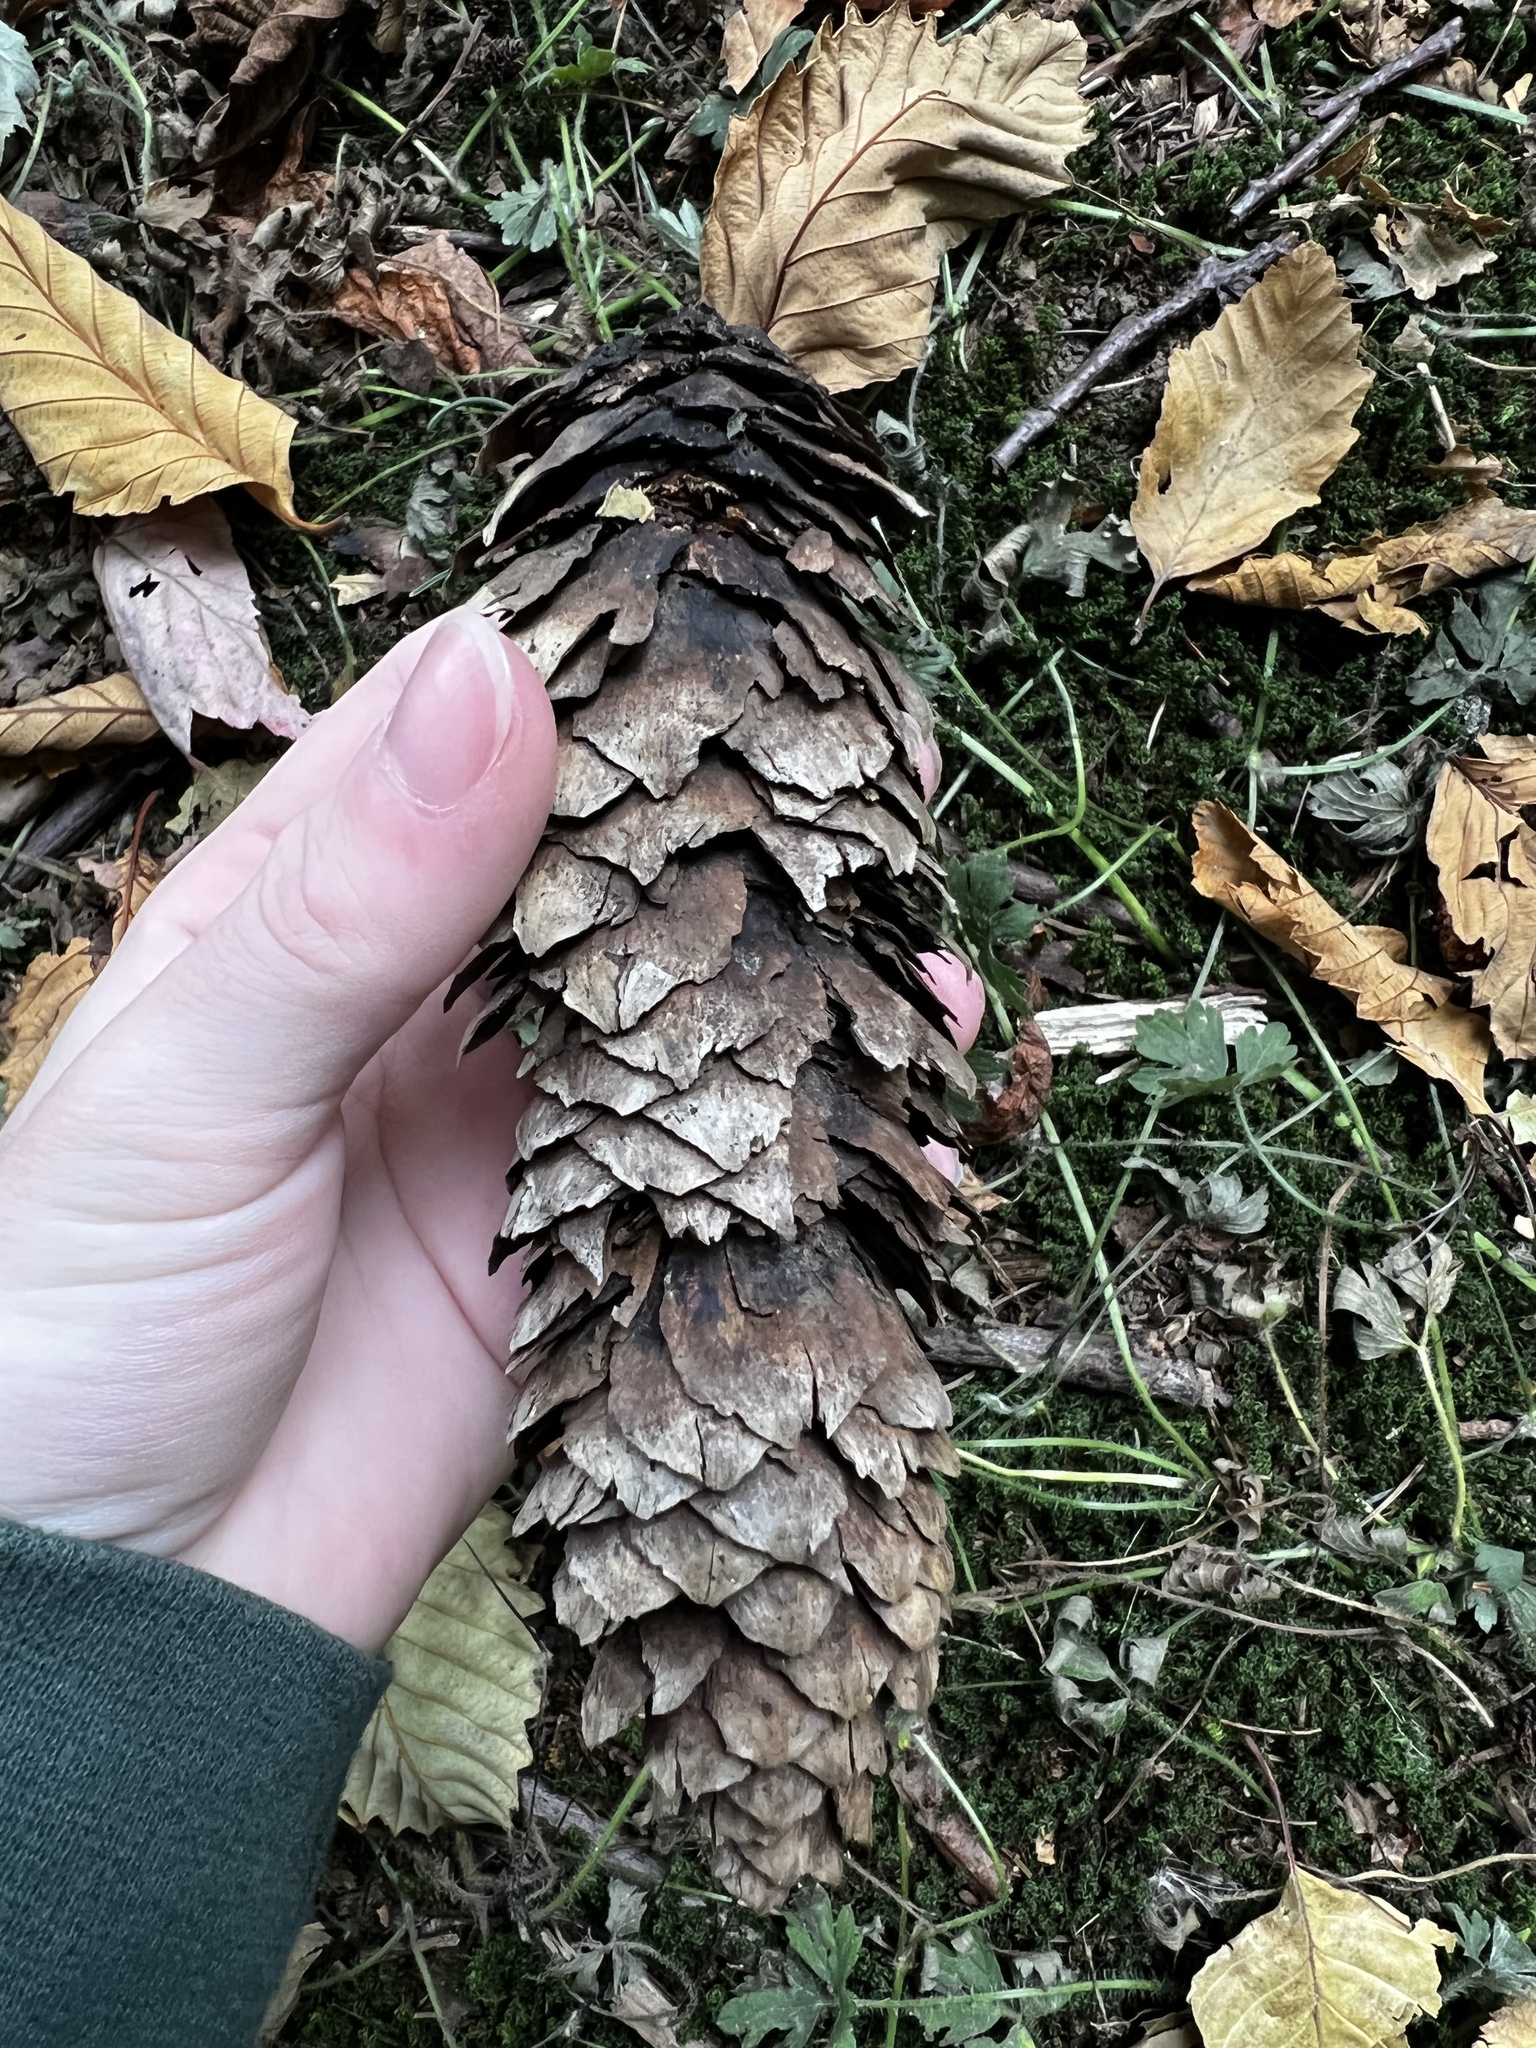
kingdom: Plantae
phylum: Tracheophyta
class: Pinopsida
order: Pinales
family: Pinaceae
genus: Picea
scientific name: Picea abies
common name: Norway spruce
